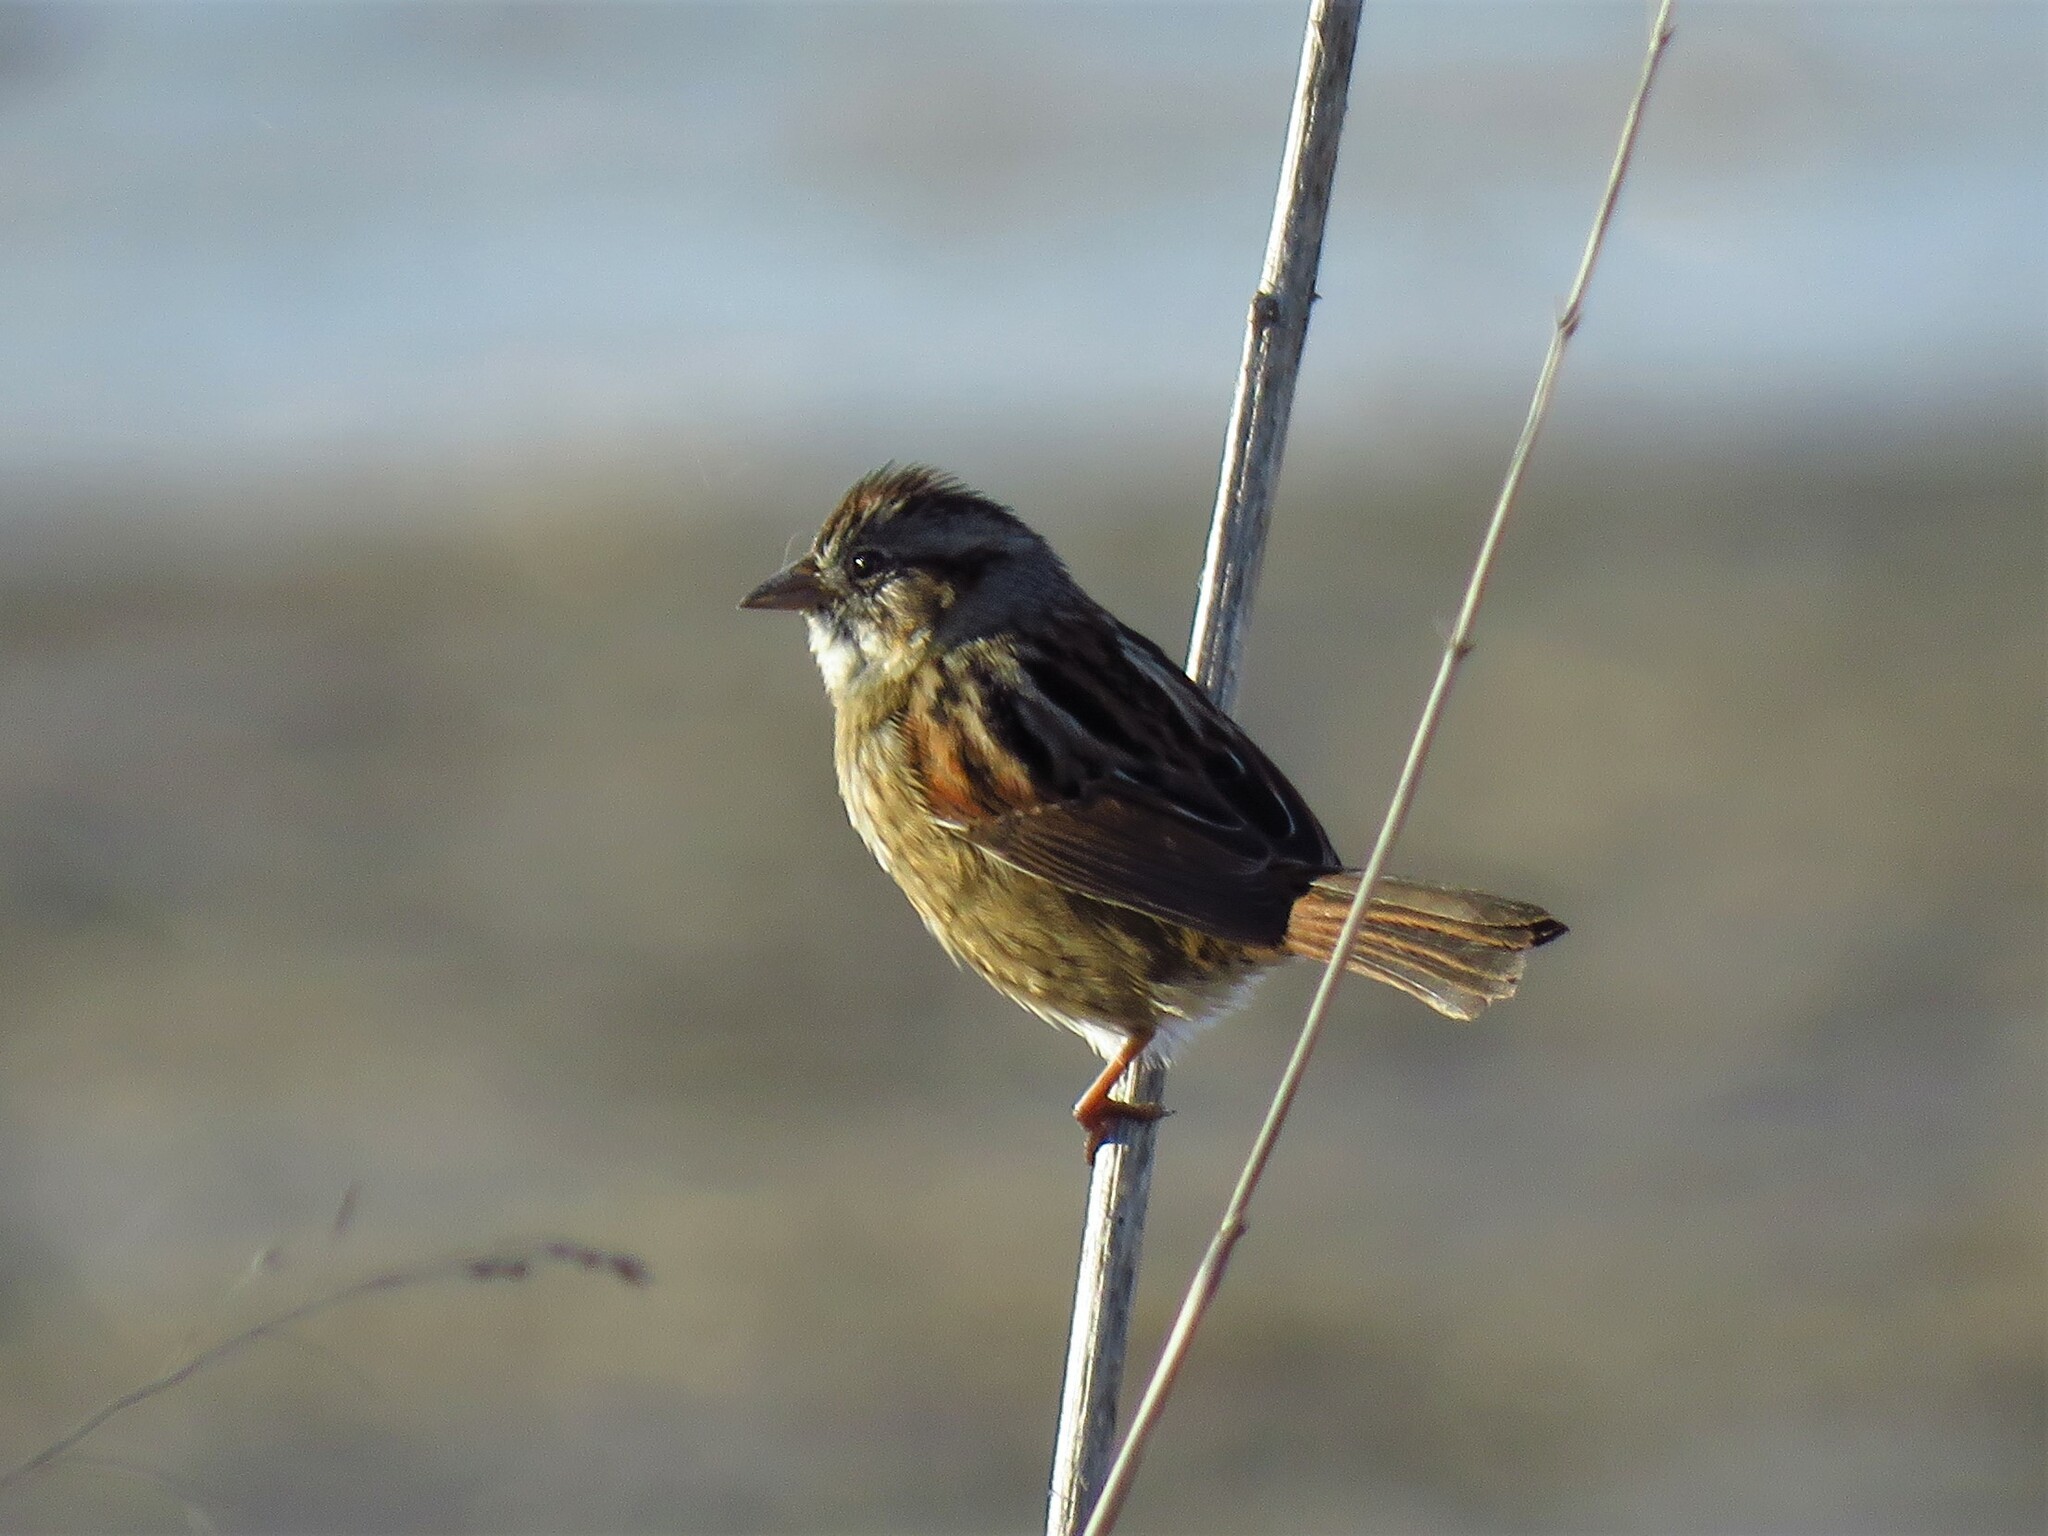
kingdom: Animalia
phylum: Chordata
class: Aves
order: Passeriformes
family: Passerellidae
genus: Melospiza
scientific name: Melospiza georgiana
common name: Swamp sparrow
